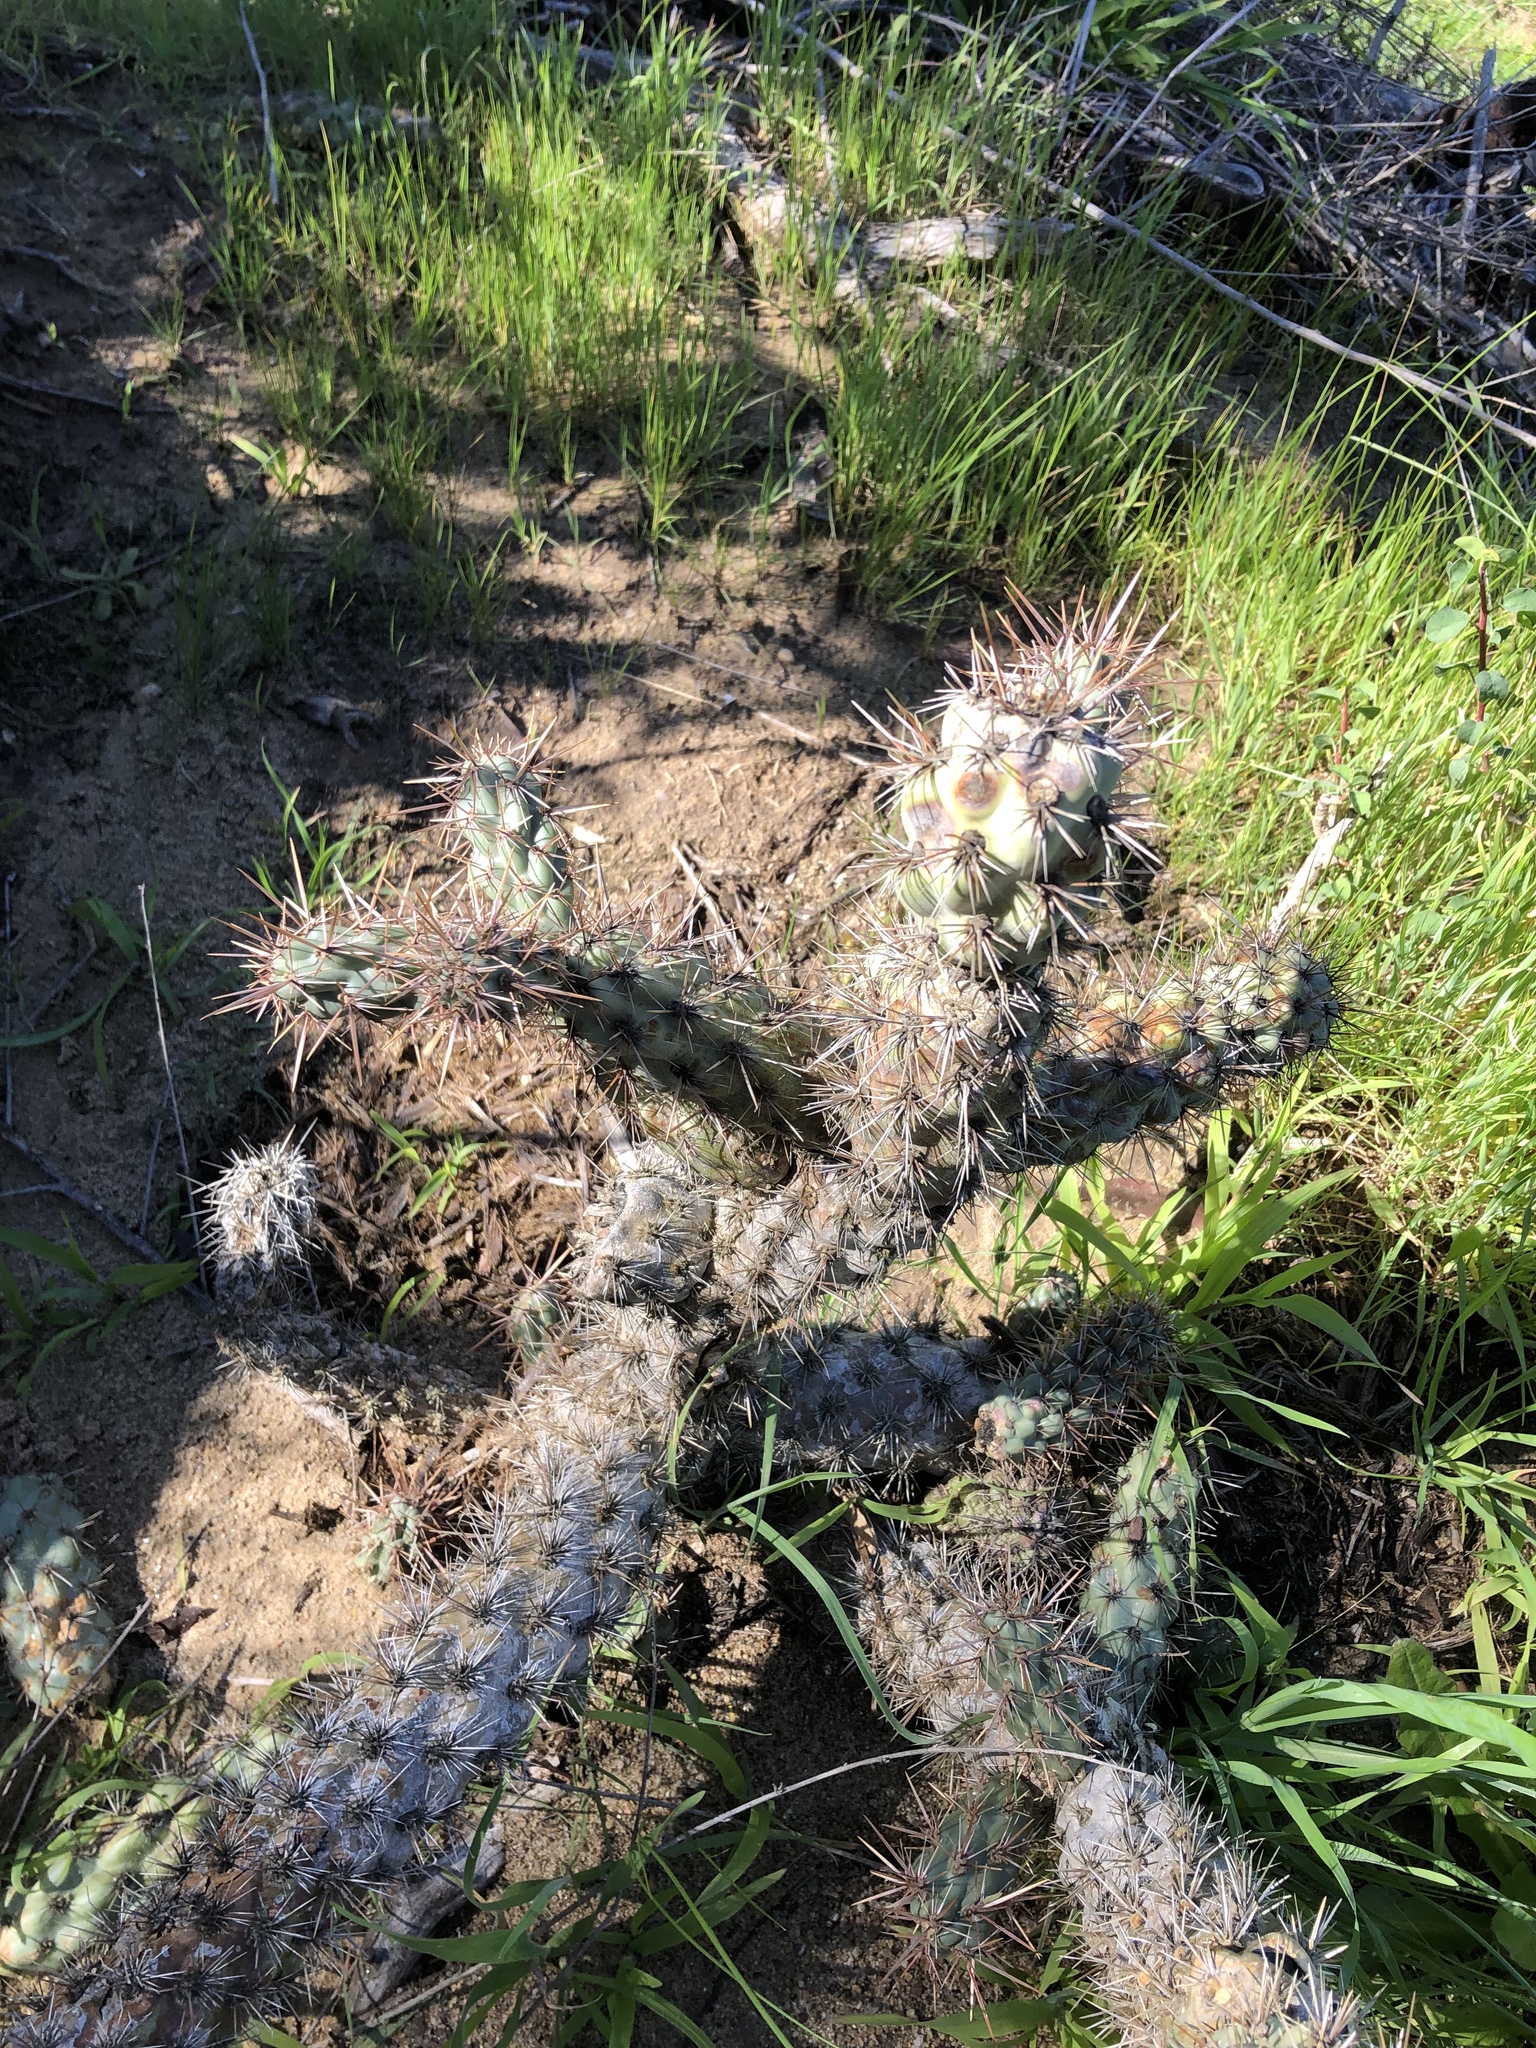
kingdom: Plantae
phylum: Tracheophyta
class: Magnoliopsida
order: Caryophyllales
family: Cactaceae
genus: Cylindropuntia
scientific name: Cylindropuntia prolifera
